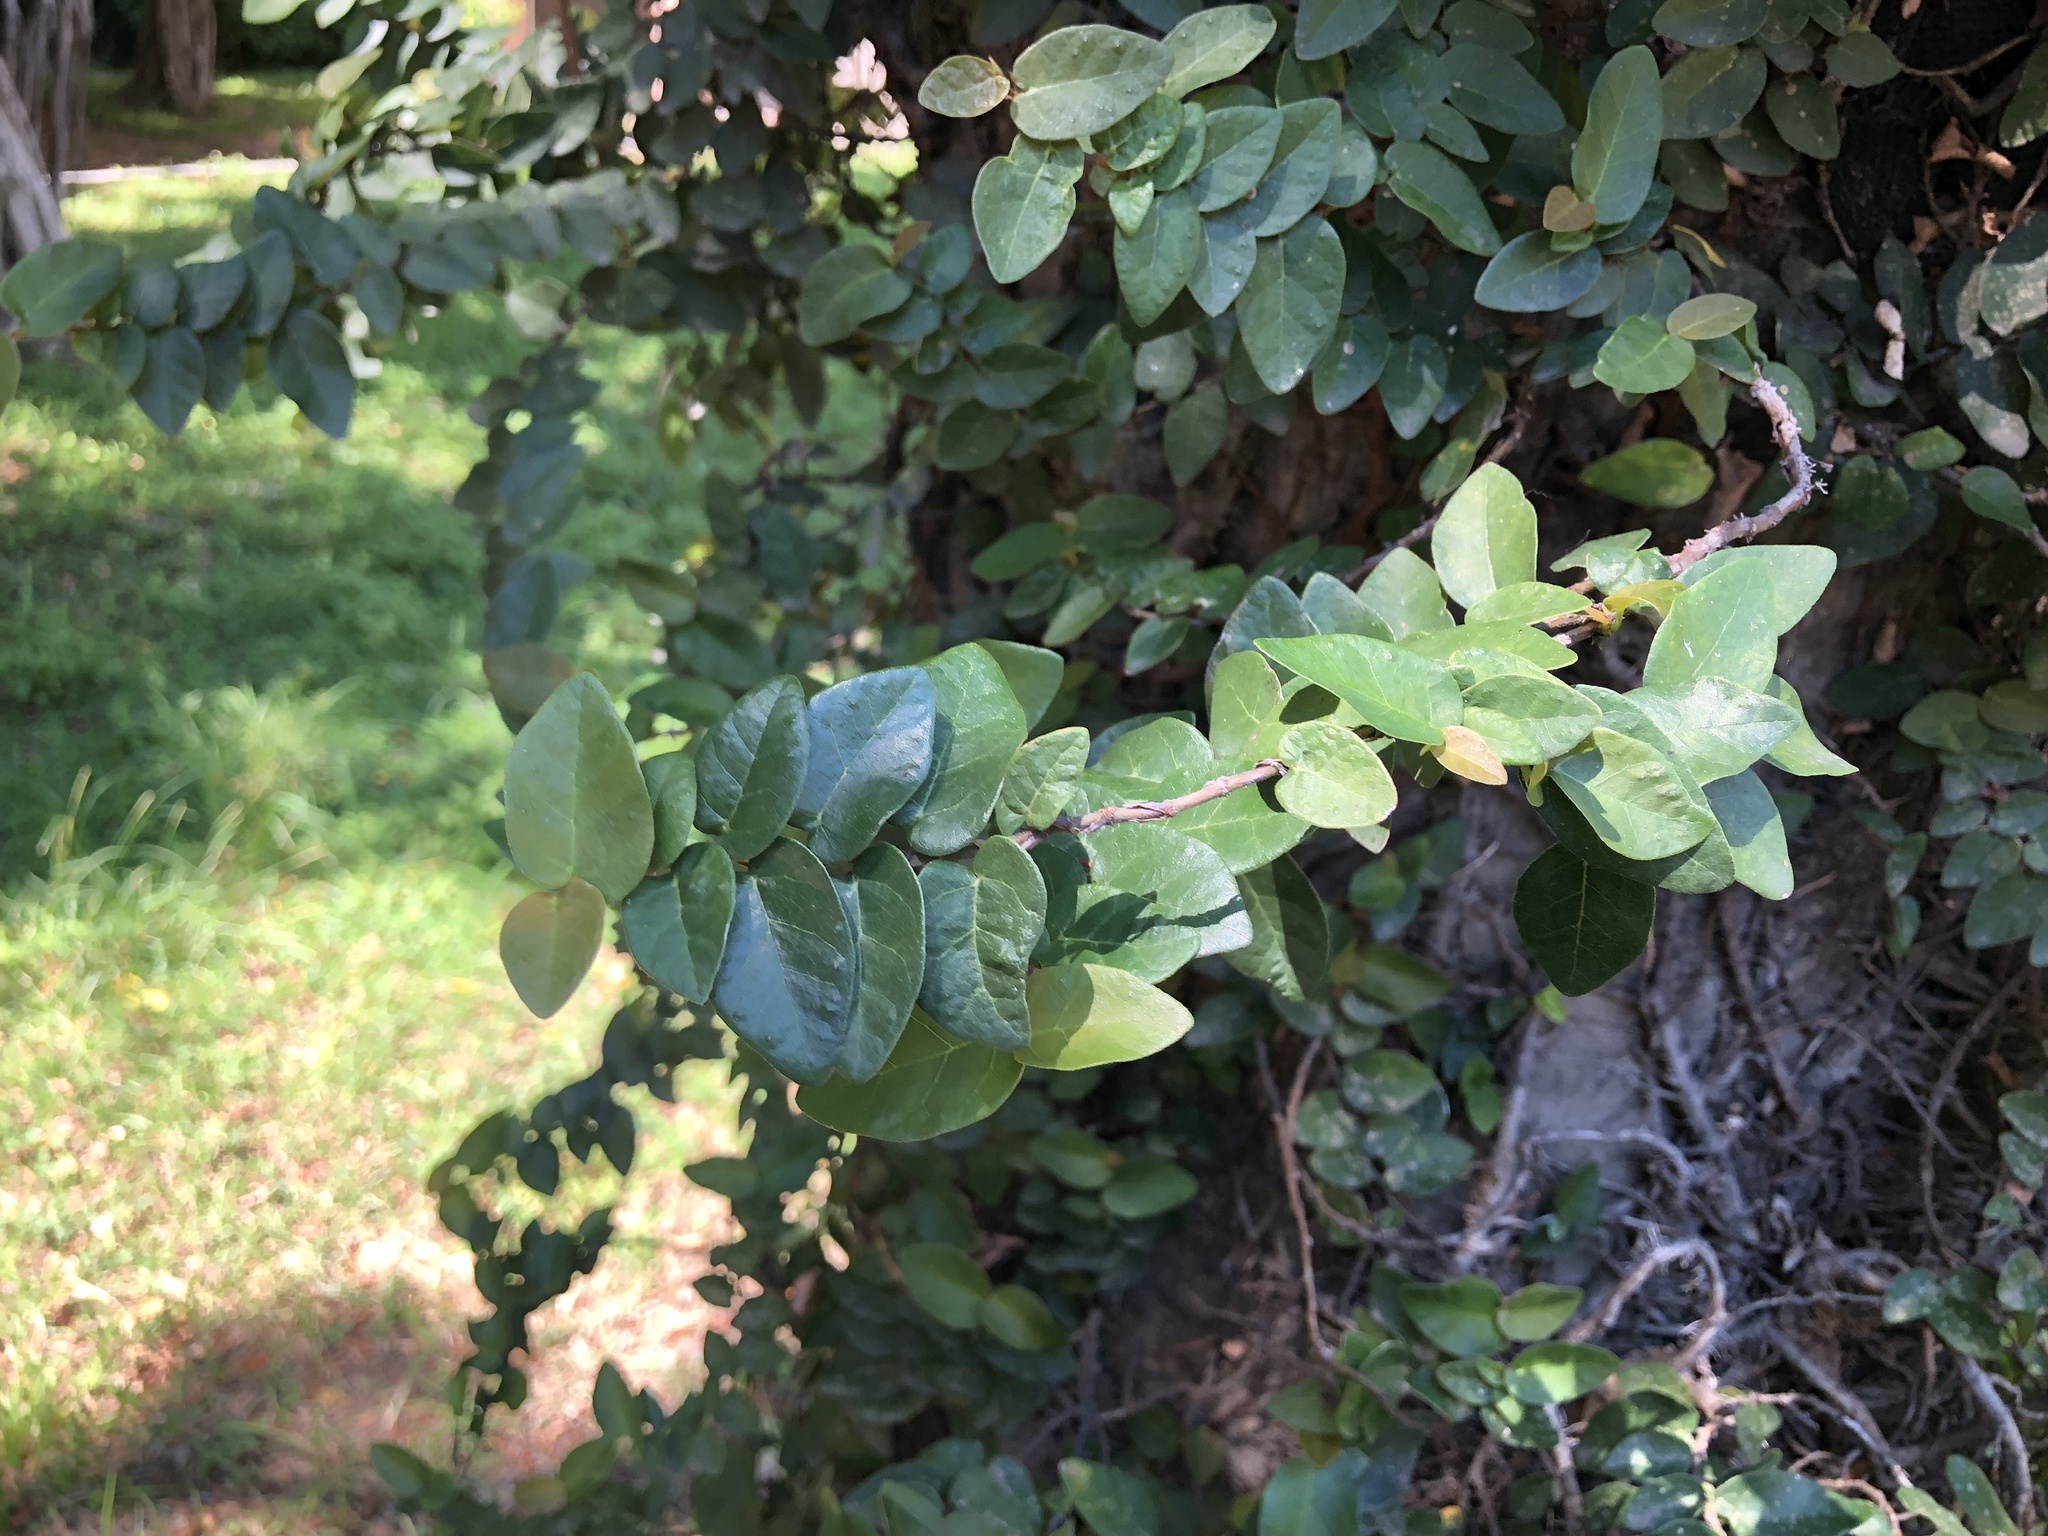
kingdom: Plantae
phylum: Tracheophyta
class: Magnoliopsida
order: Rosales
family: Moraceae
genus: Ficus
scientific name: Ficus pumila
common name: Climbingfig
